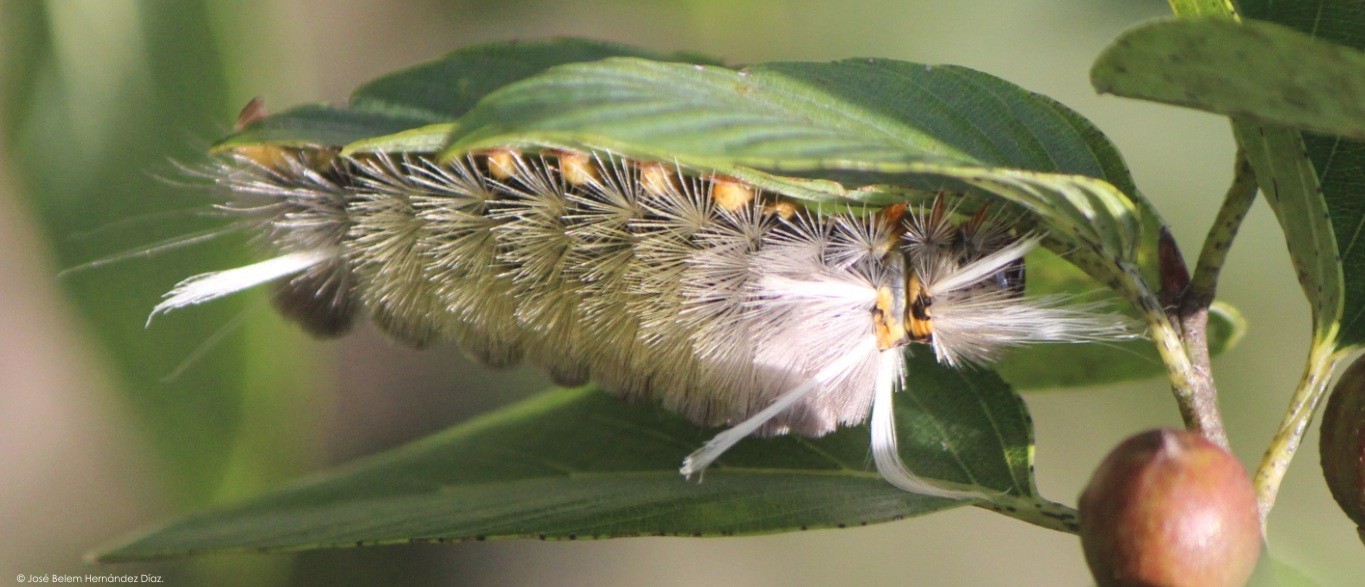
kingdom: Animalia
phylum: Arthropoda
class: Insecta
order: Lepidoptera
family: Erebidae
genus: Halysidota
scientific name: Halysidota schausi
